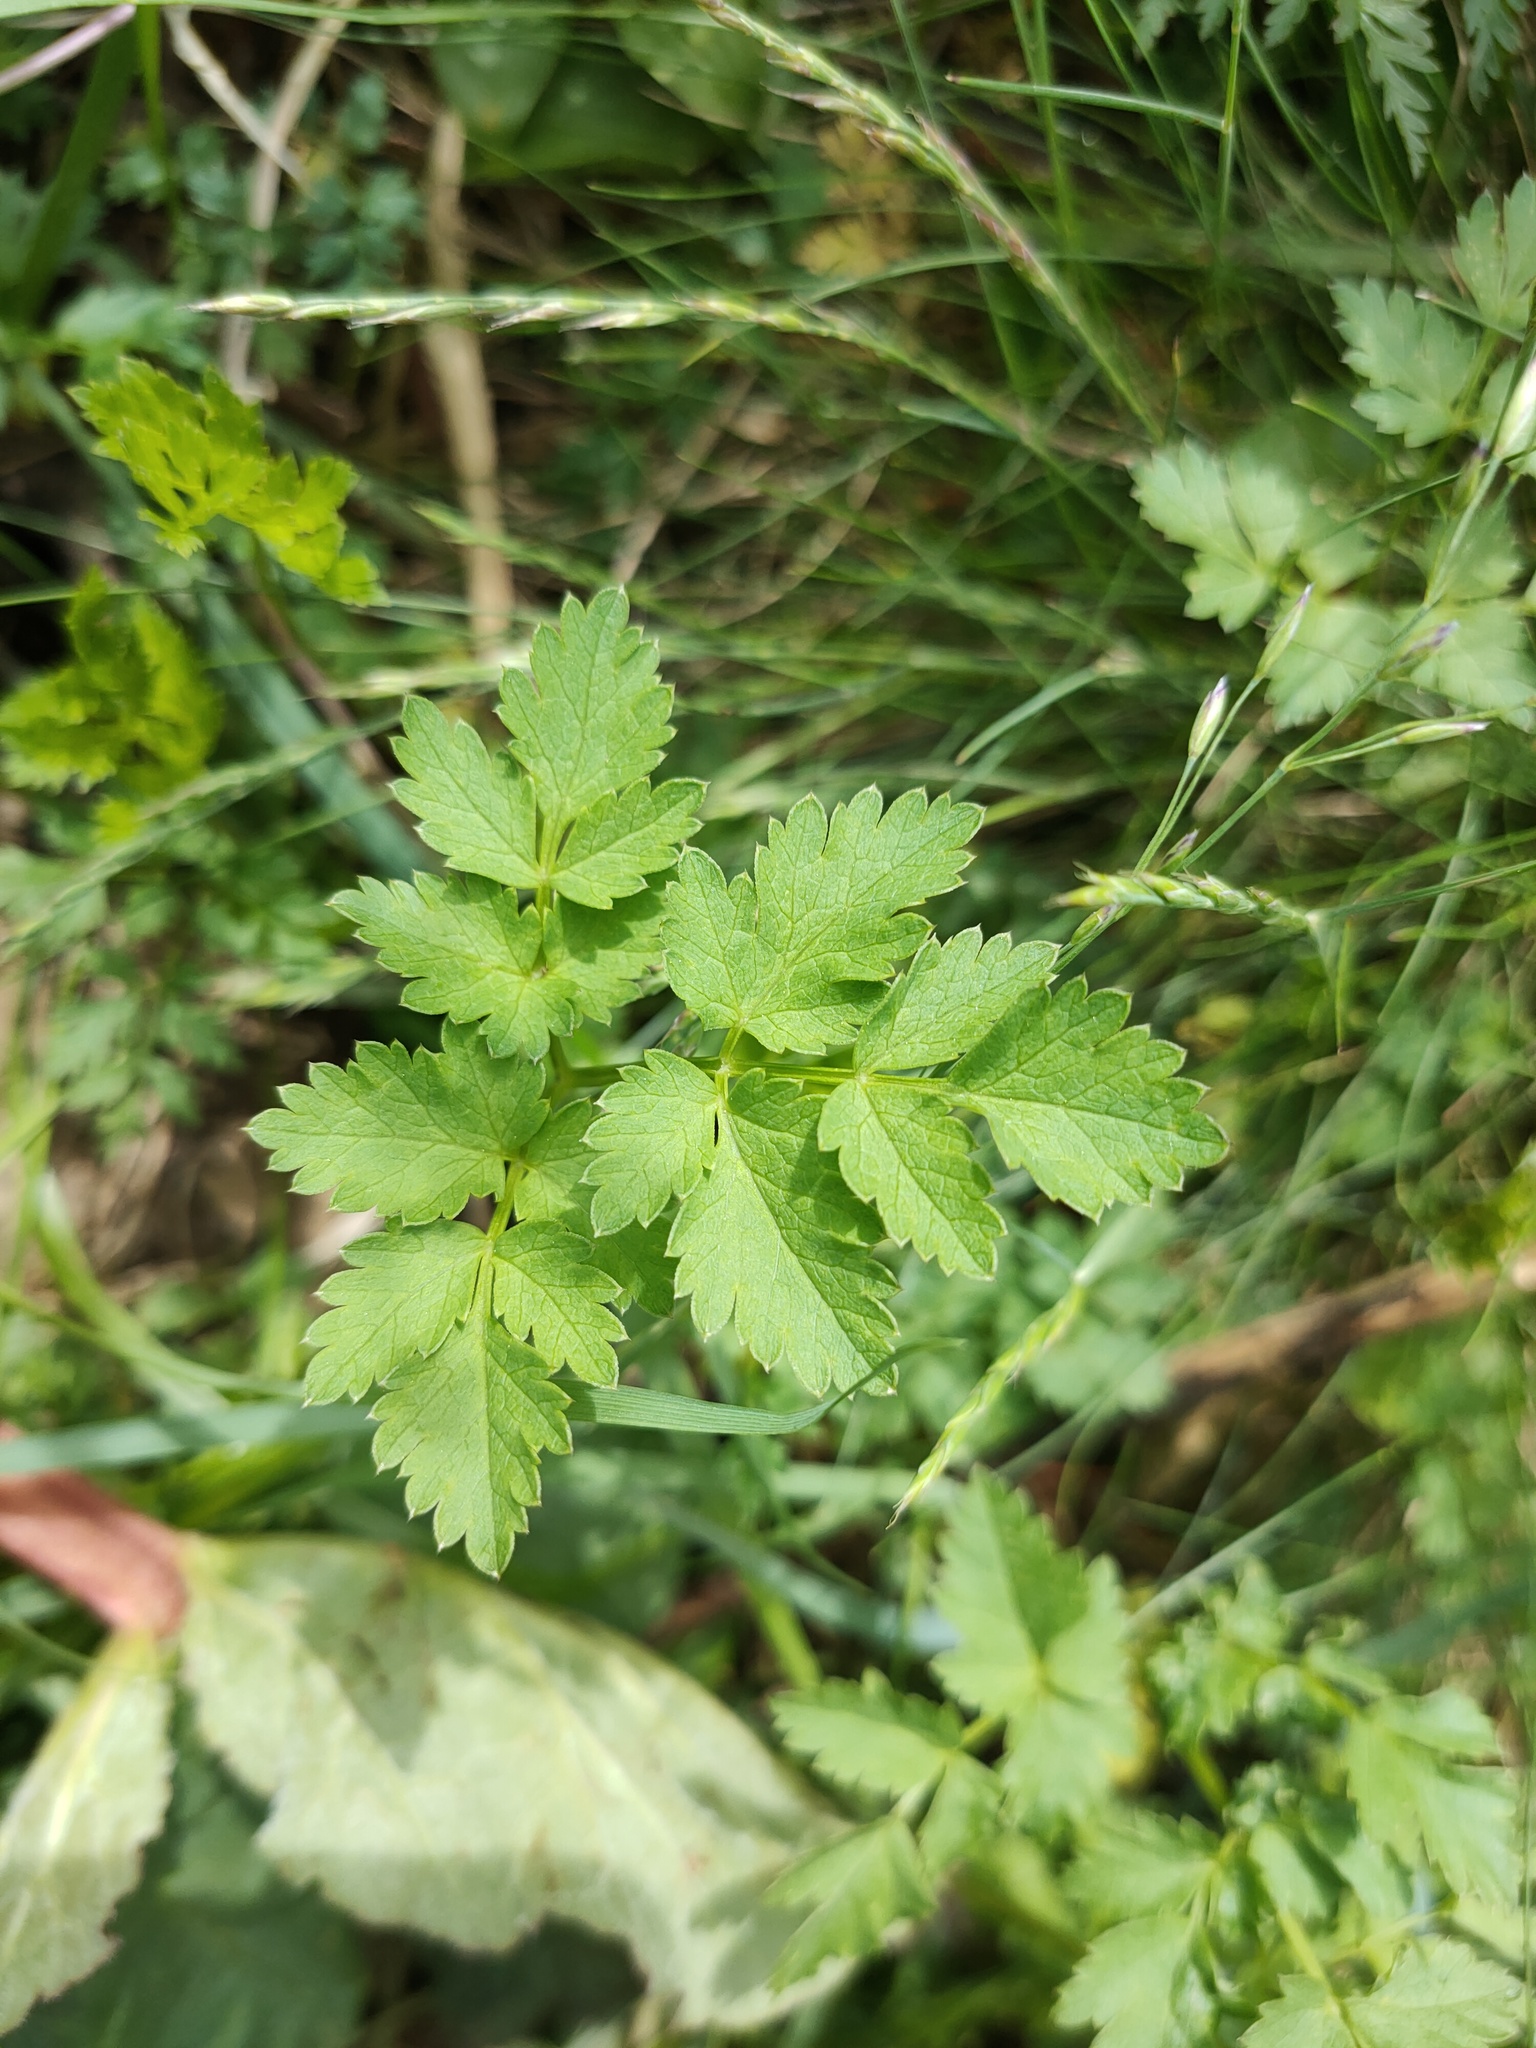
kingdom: Plantae
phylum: Tracheophyta
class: Magnoliopsida
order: Apiales
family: Apiaceae
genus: Aegopodium
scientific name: Aegopodium alpestre
